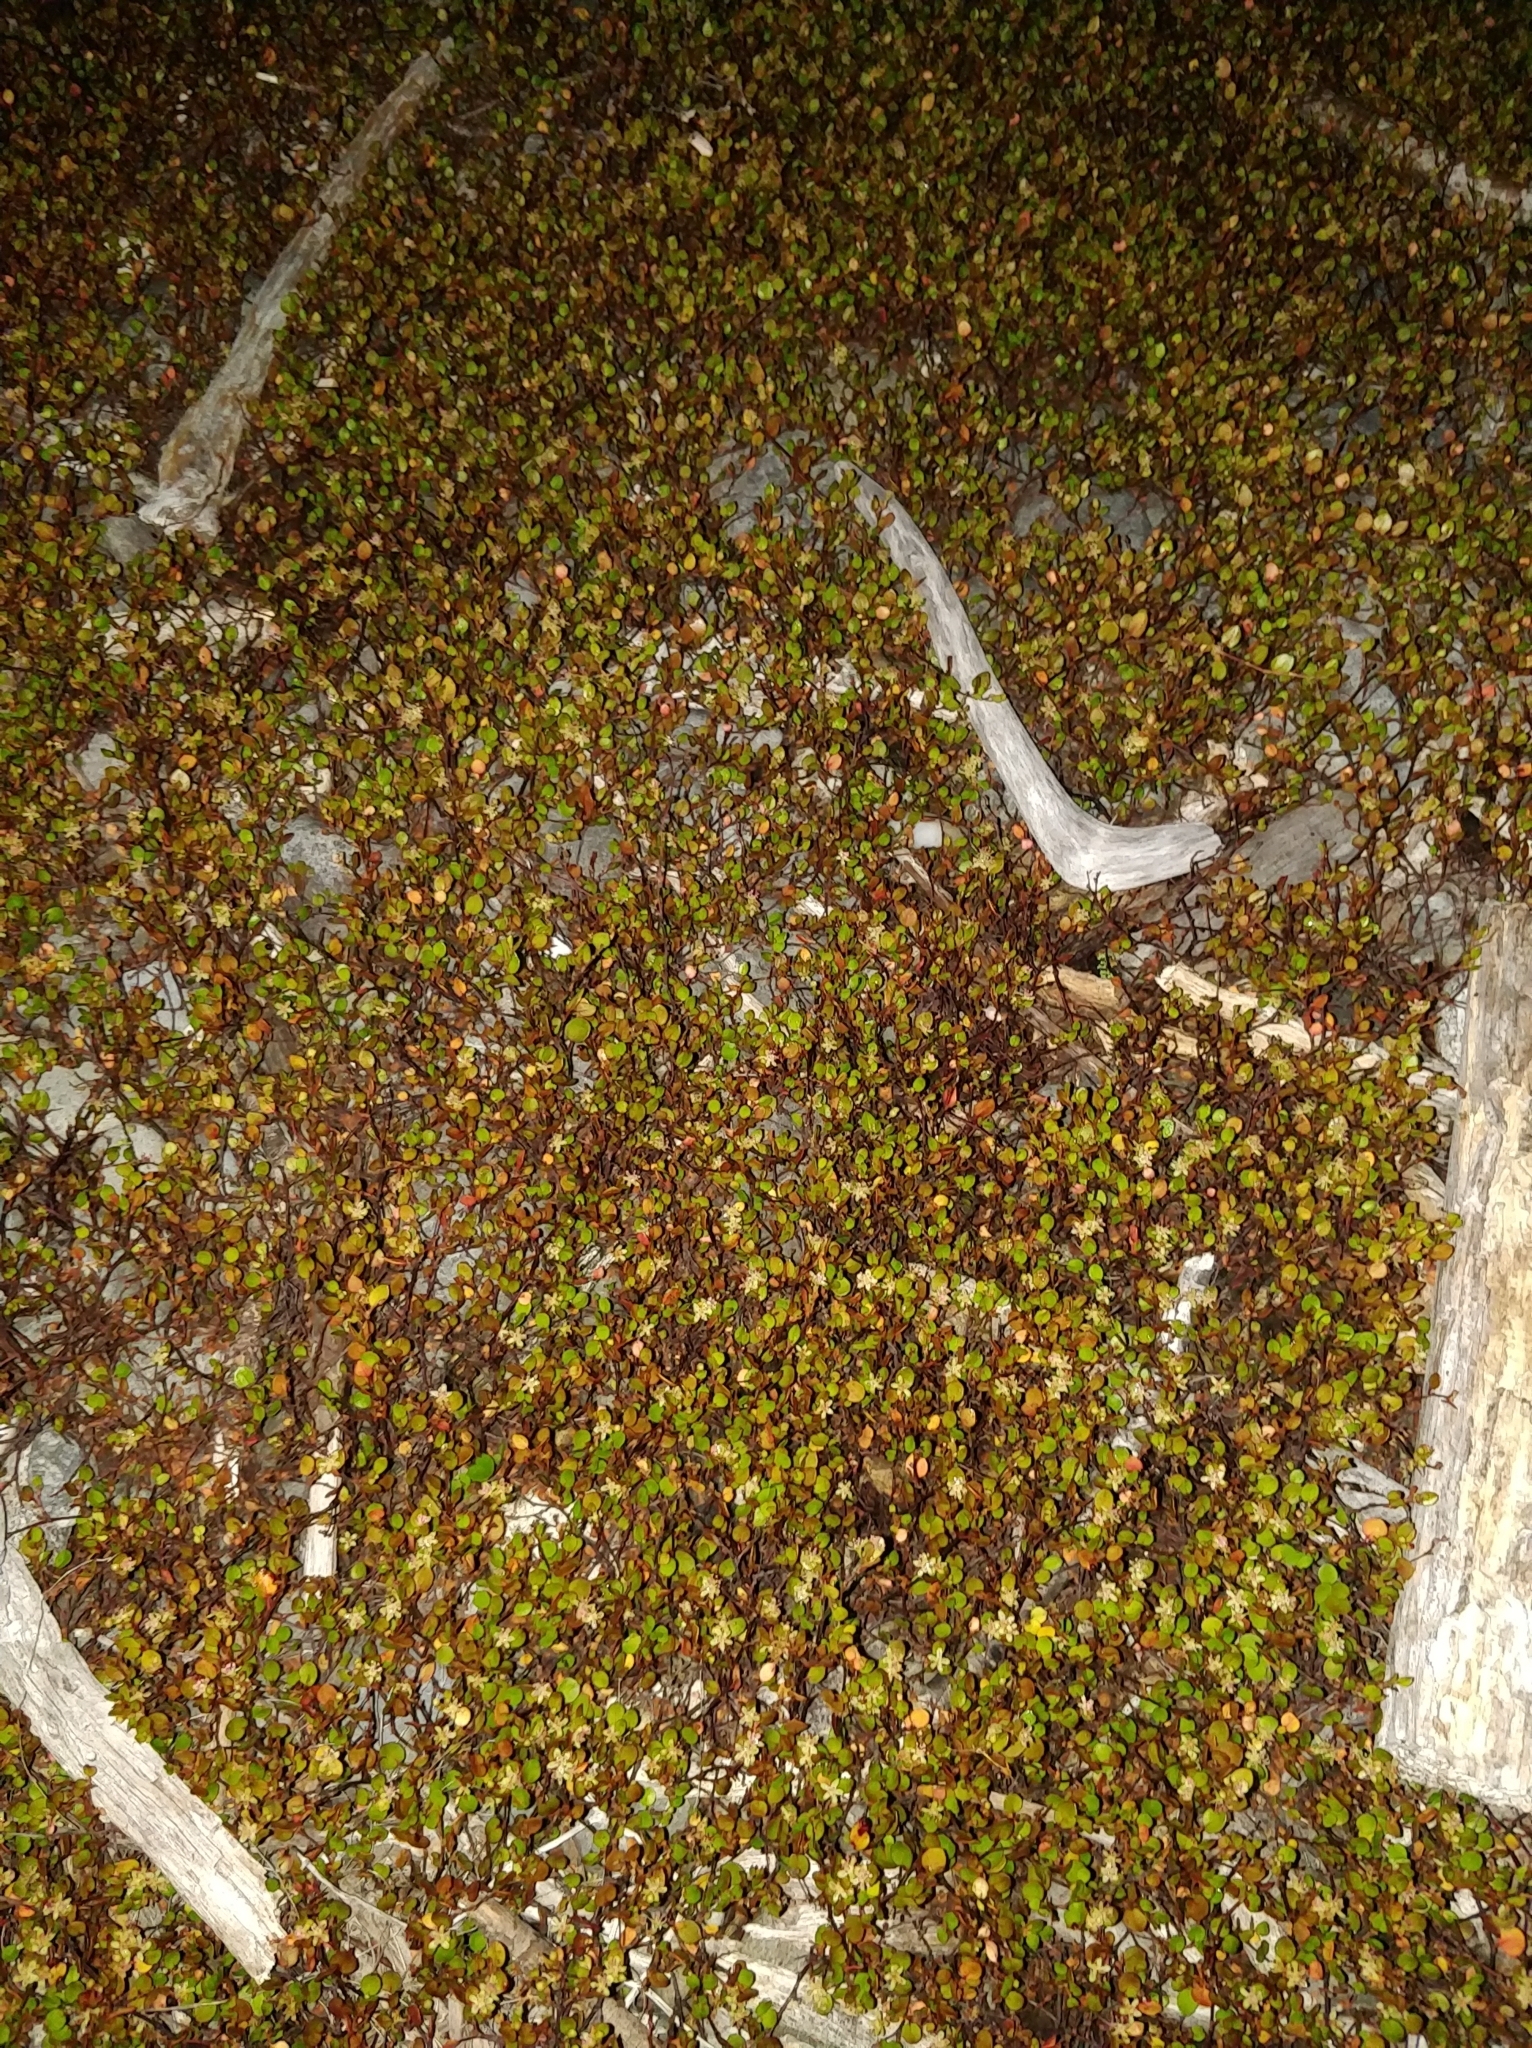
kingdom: Plantae
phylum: Tracheophyta
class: Magnoliopsida
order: Caryophyllales
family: Polygonaceae
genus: Muehlenbeckia
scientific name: Muehlenbeckia axillaris
